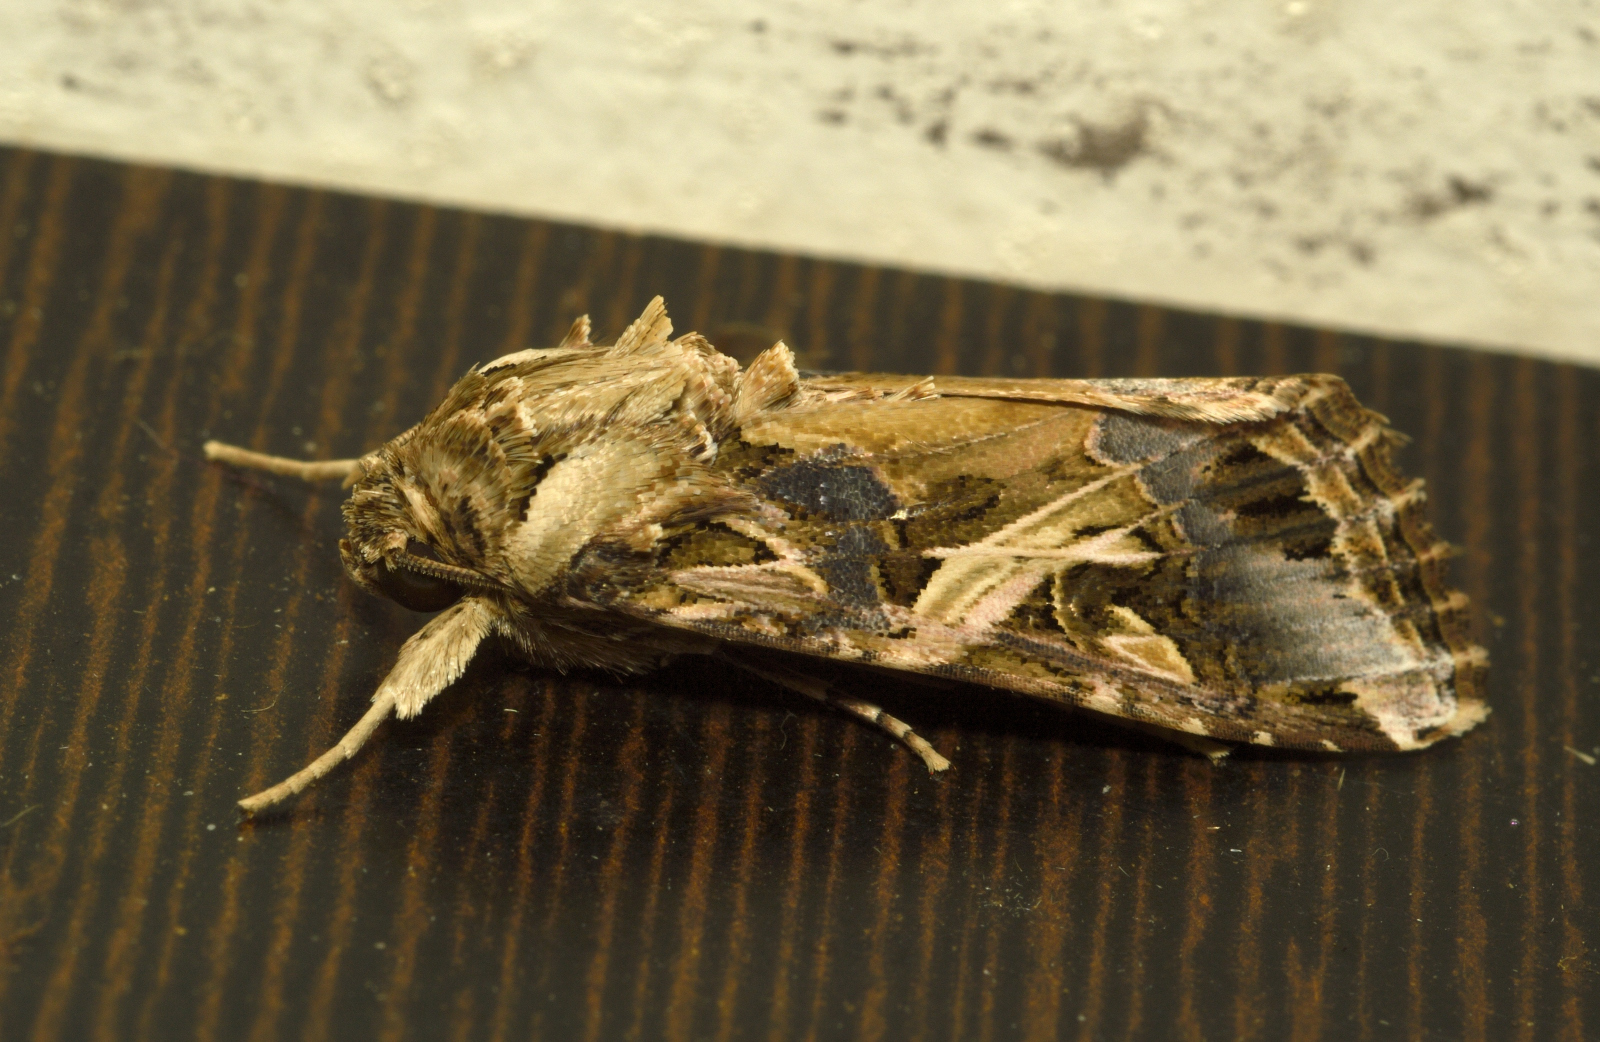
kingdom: Animalia
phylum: Arthropoda
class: Insecta
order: Lepidoptera
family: Noctuidae
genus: Spodoptera
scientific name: Spodoptera litura
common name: Asian cotton leafworm
